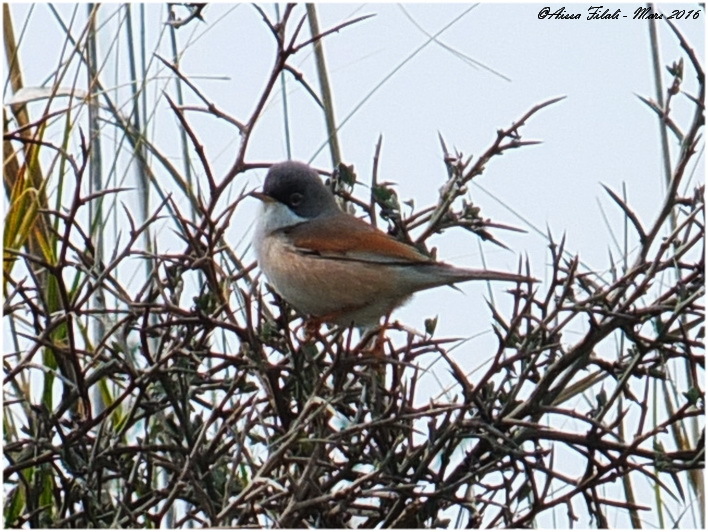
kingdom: Animalia
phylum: Chordata
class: Aves
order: Passeriformes
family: Sylviidae
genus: Sylvia
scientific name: Sylvia conspicillata
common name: Spectacled warbler
